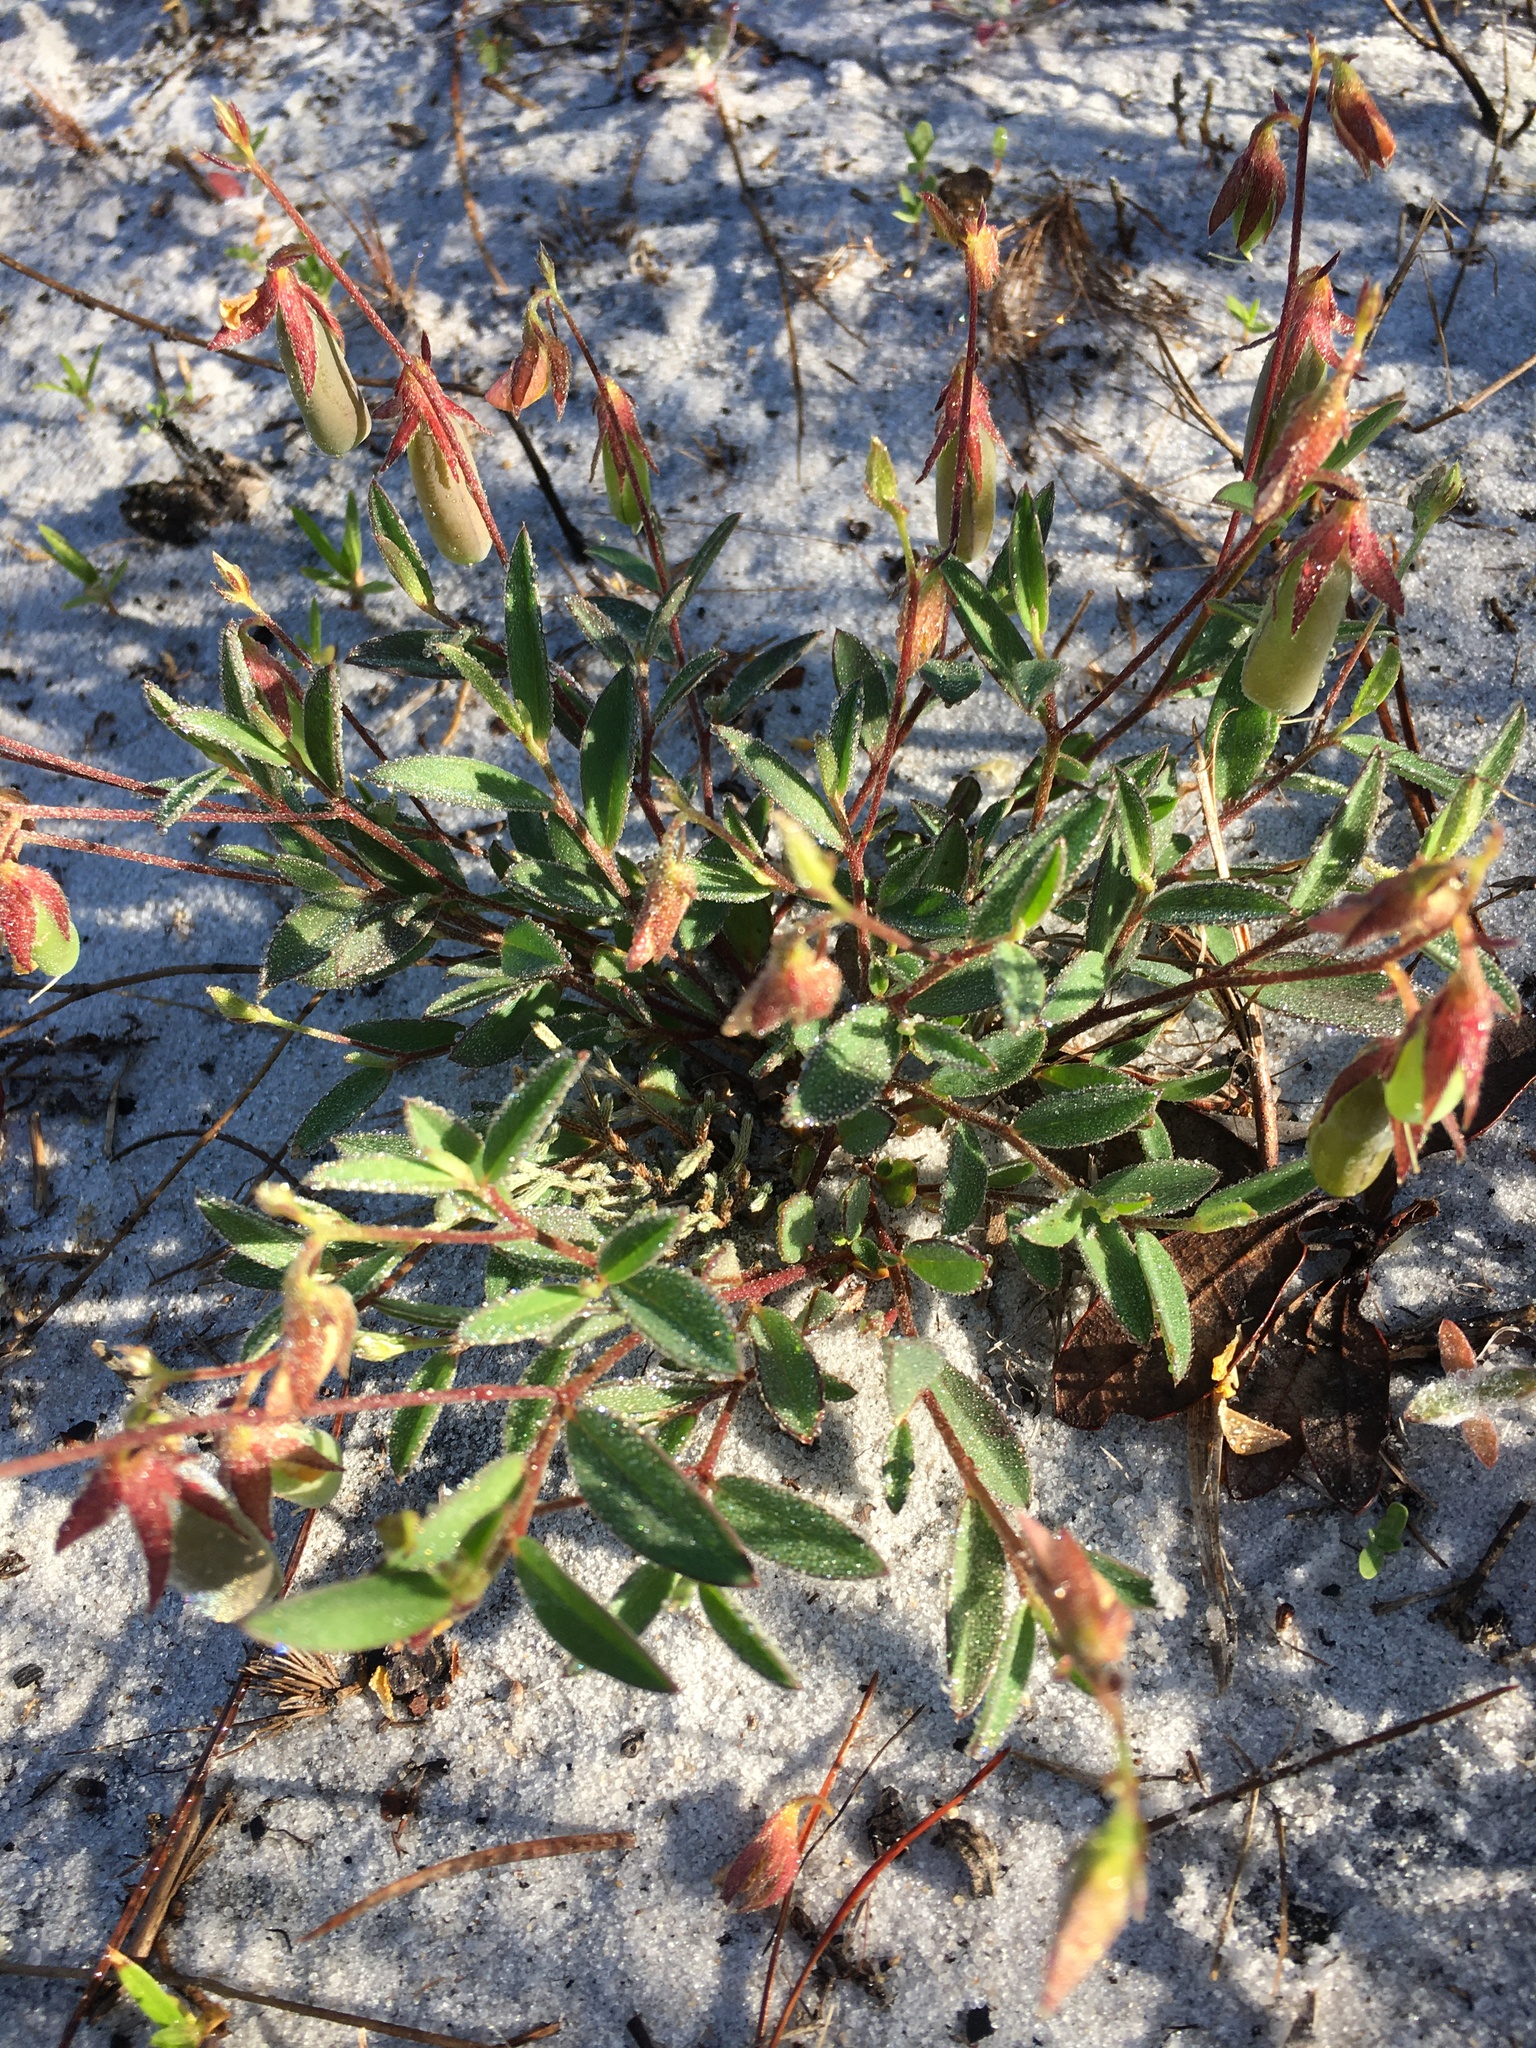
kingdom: Plantae
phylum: Tracheophyta
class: Magnoliopsida
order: Fabales
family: Fabaceae
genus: Crotalaria
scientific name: Crotalaria rotundifolia
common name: Prostrate rattlebox
